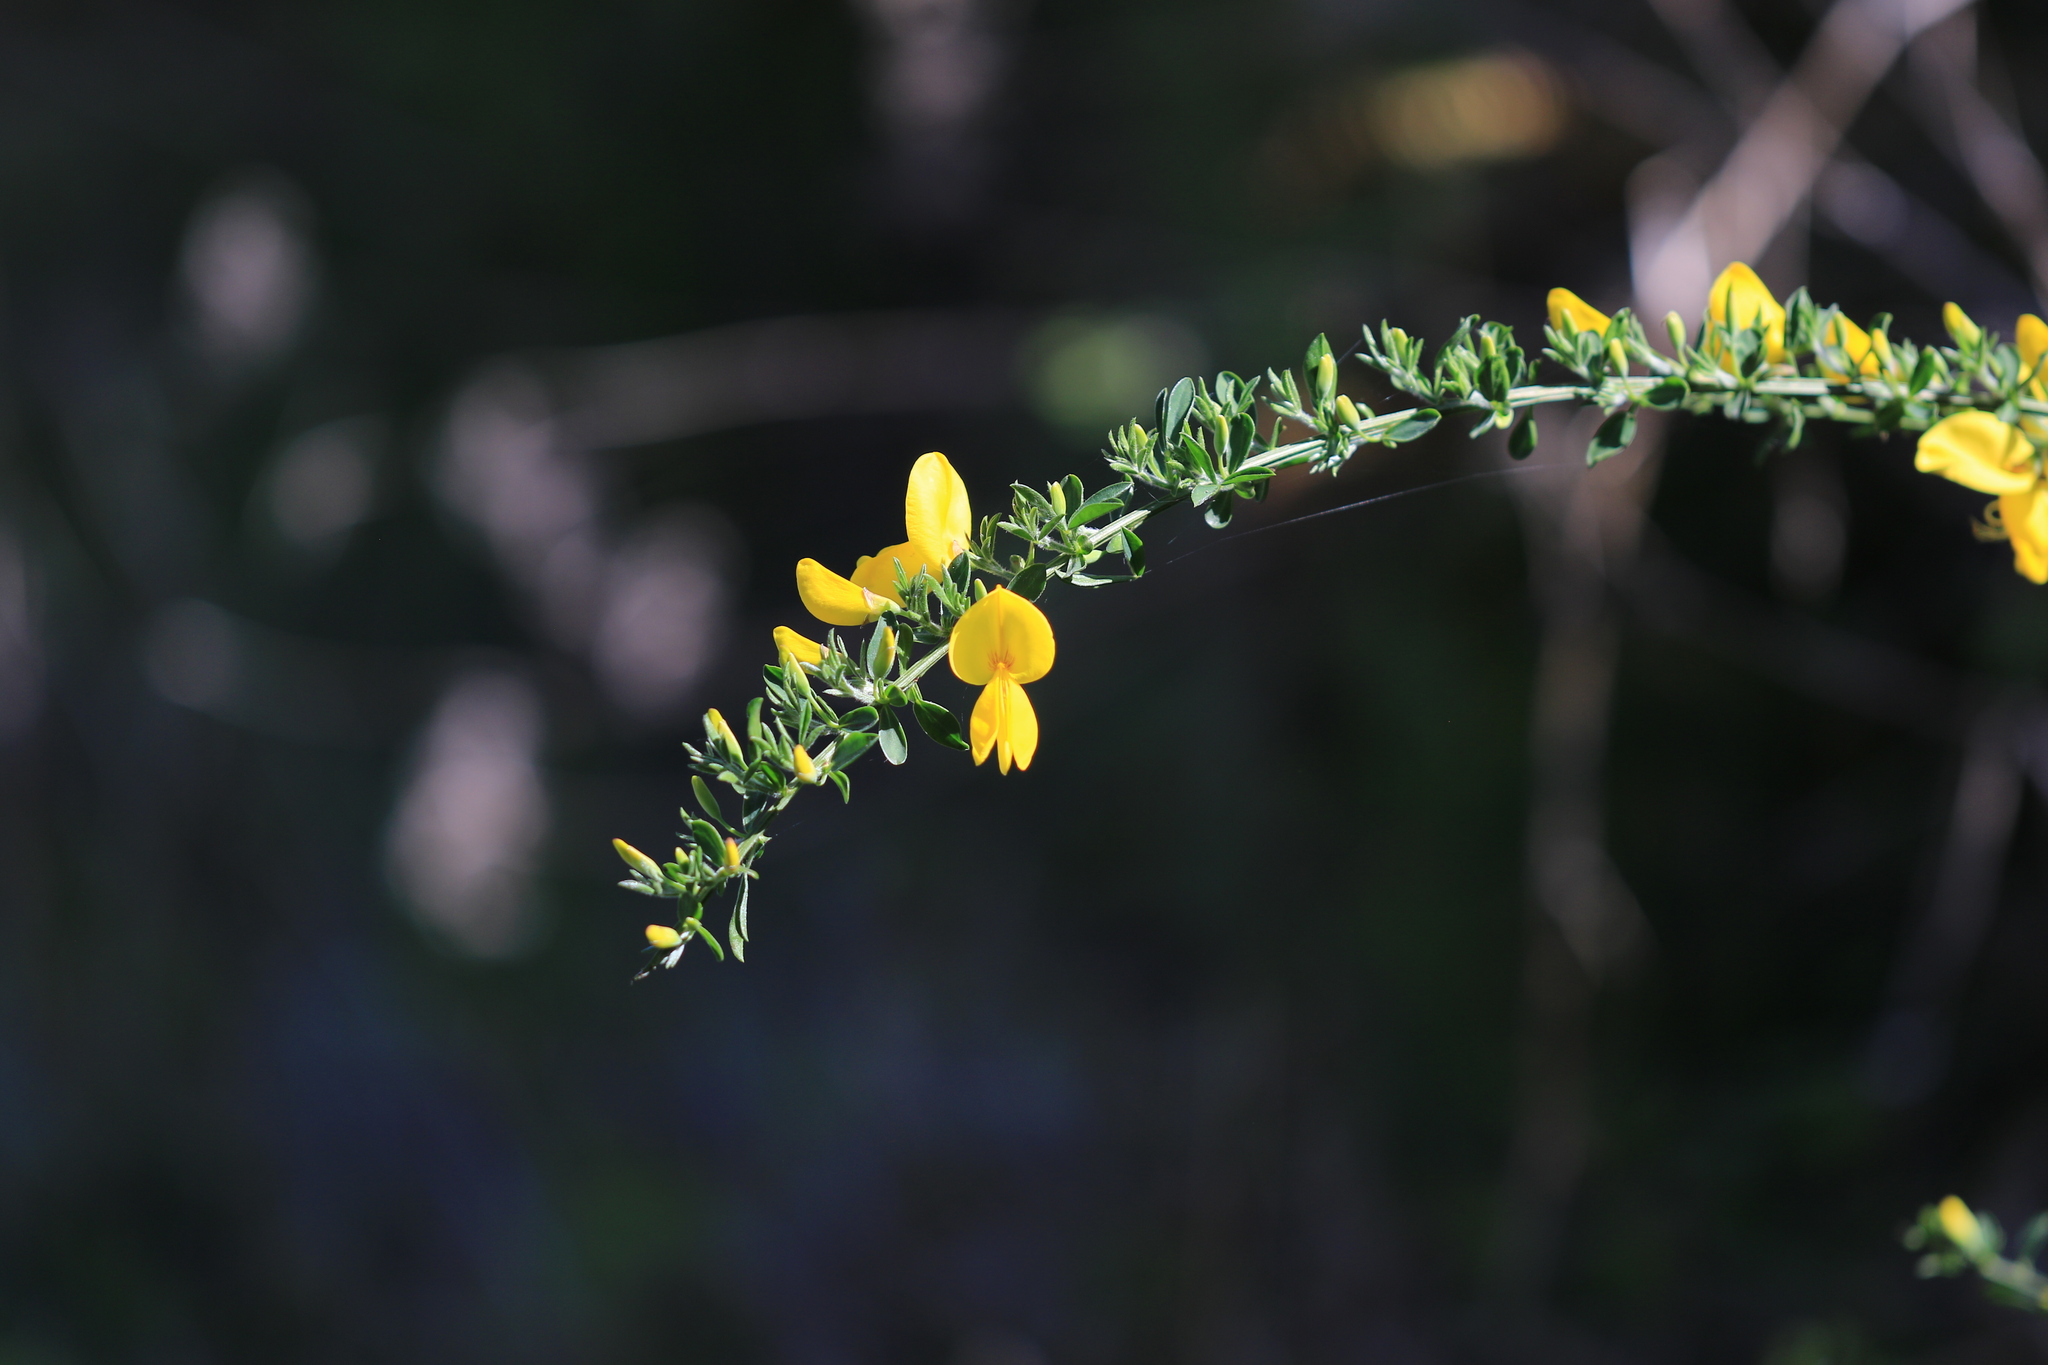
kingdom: Plantae
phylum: Tracheophyta
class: Magnoliopsida
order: Fabales
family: Fabaceae
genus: Cytisus
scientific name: Cytisus scoparius
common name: Scotch broom
